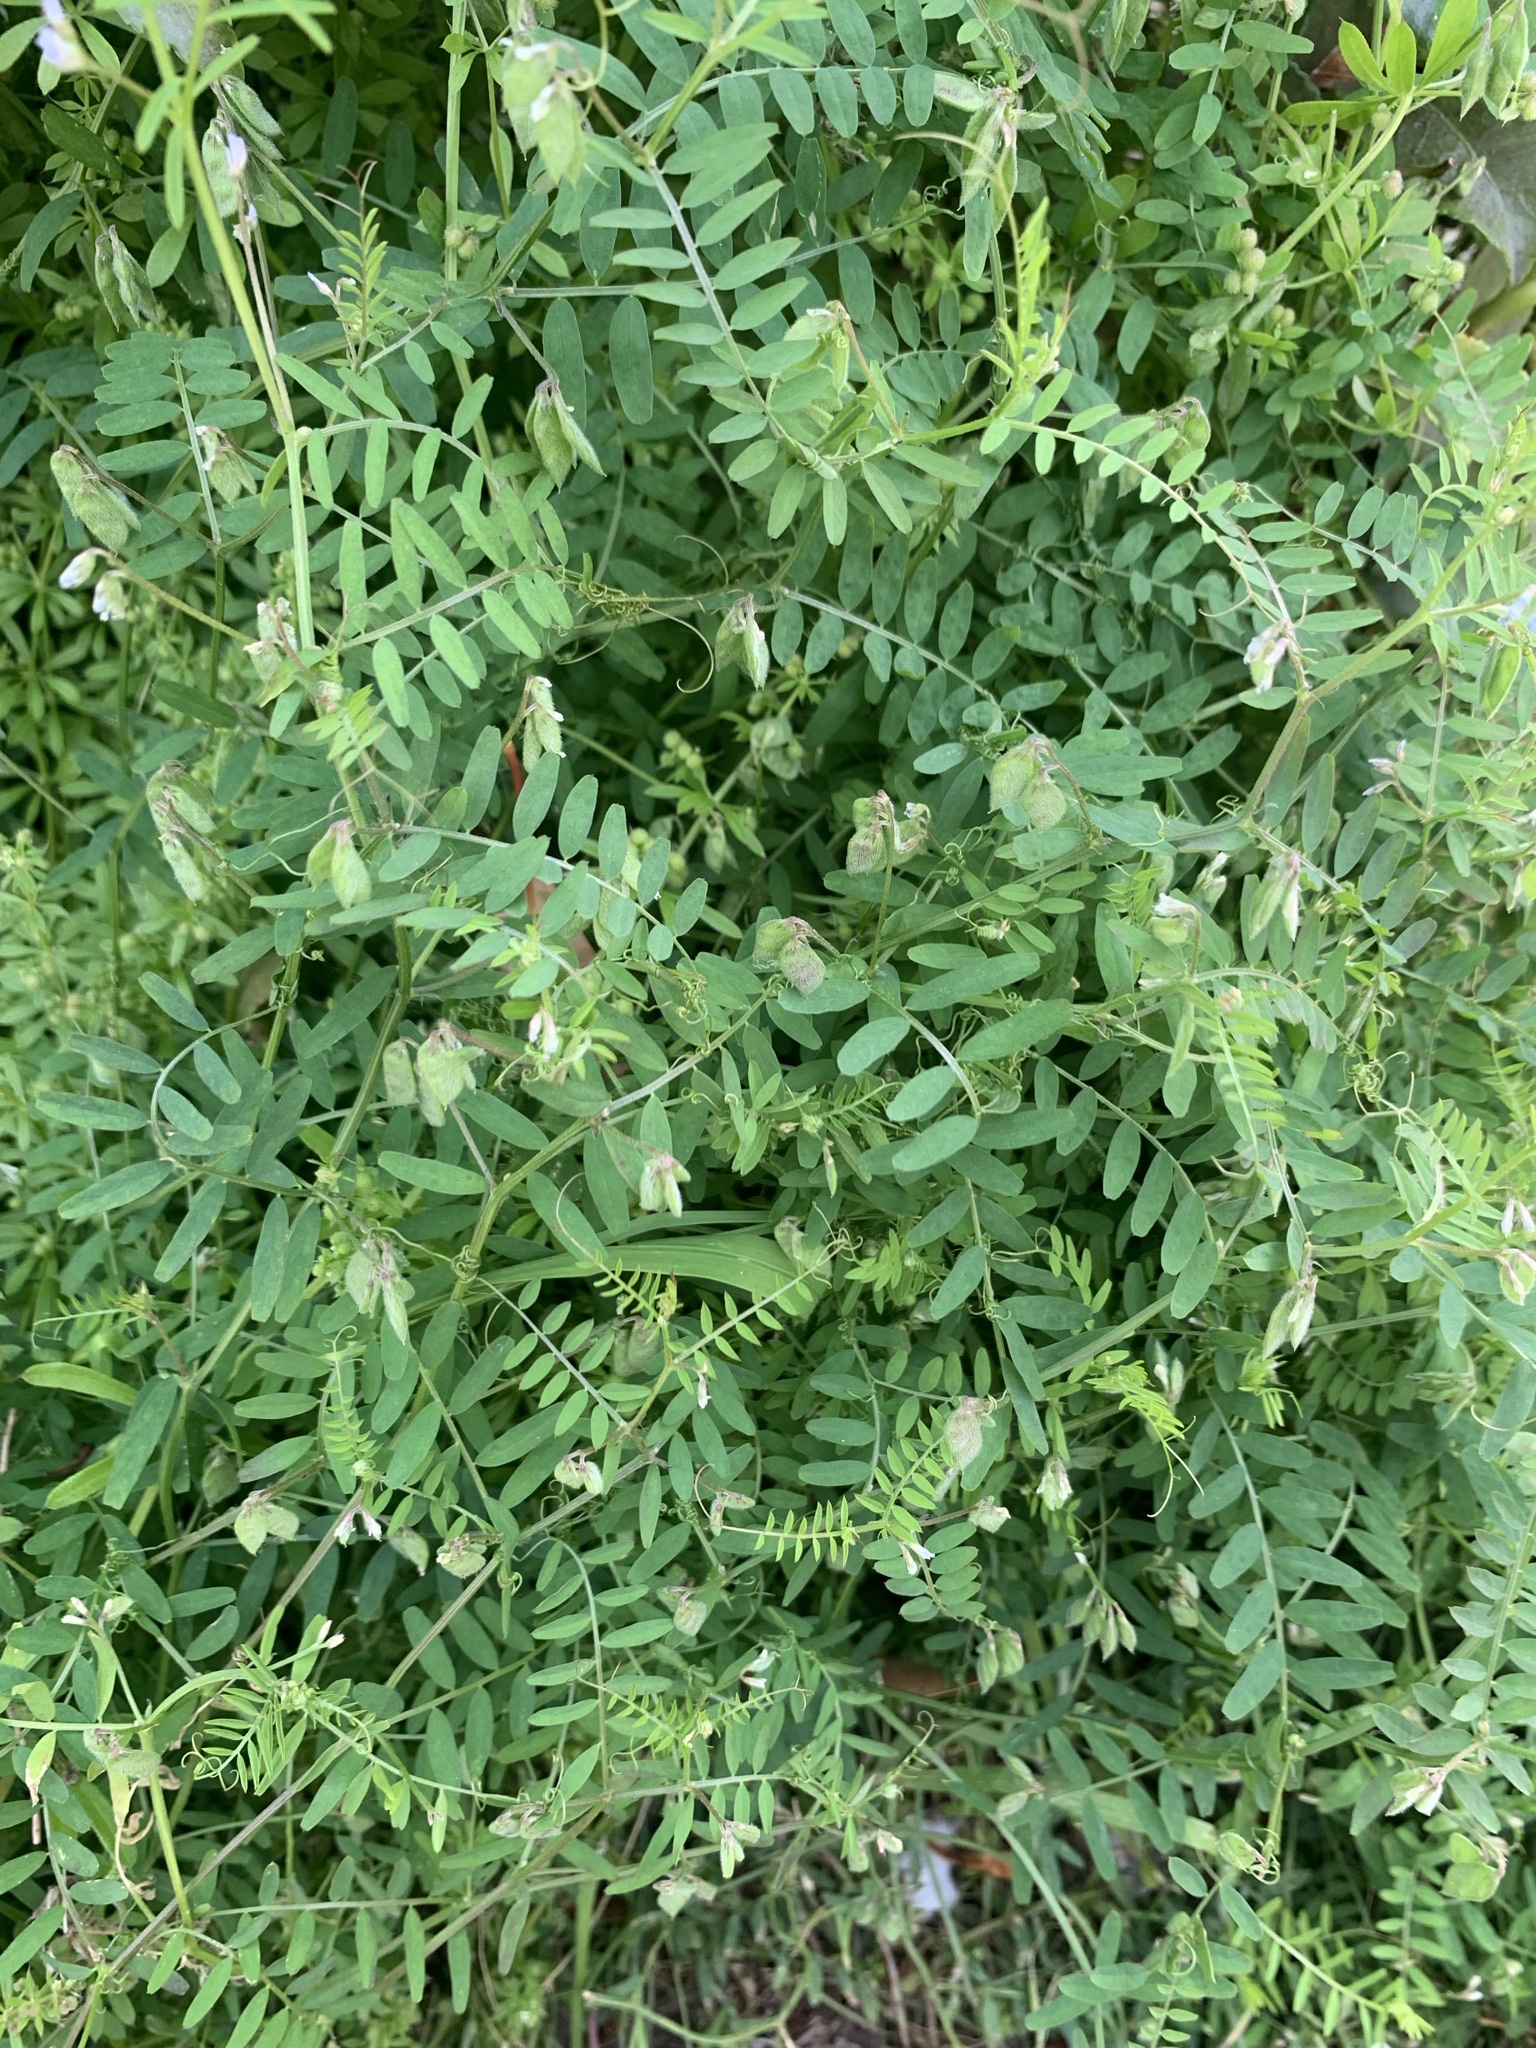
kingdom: Plantae
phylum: Tracheophyta
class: Magnoliopsida
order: Fabales
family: Fabaceae
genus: Vicia
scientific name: Vicia hirsuta
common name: Tiny vetch
